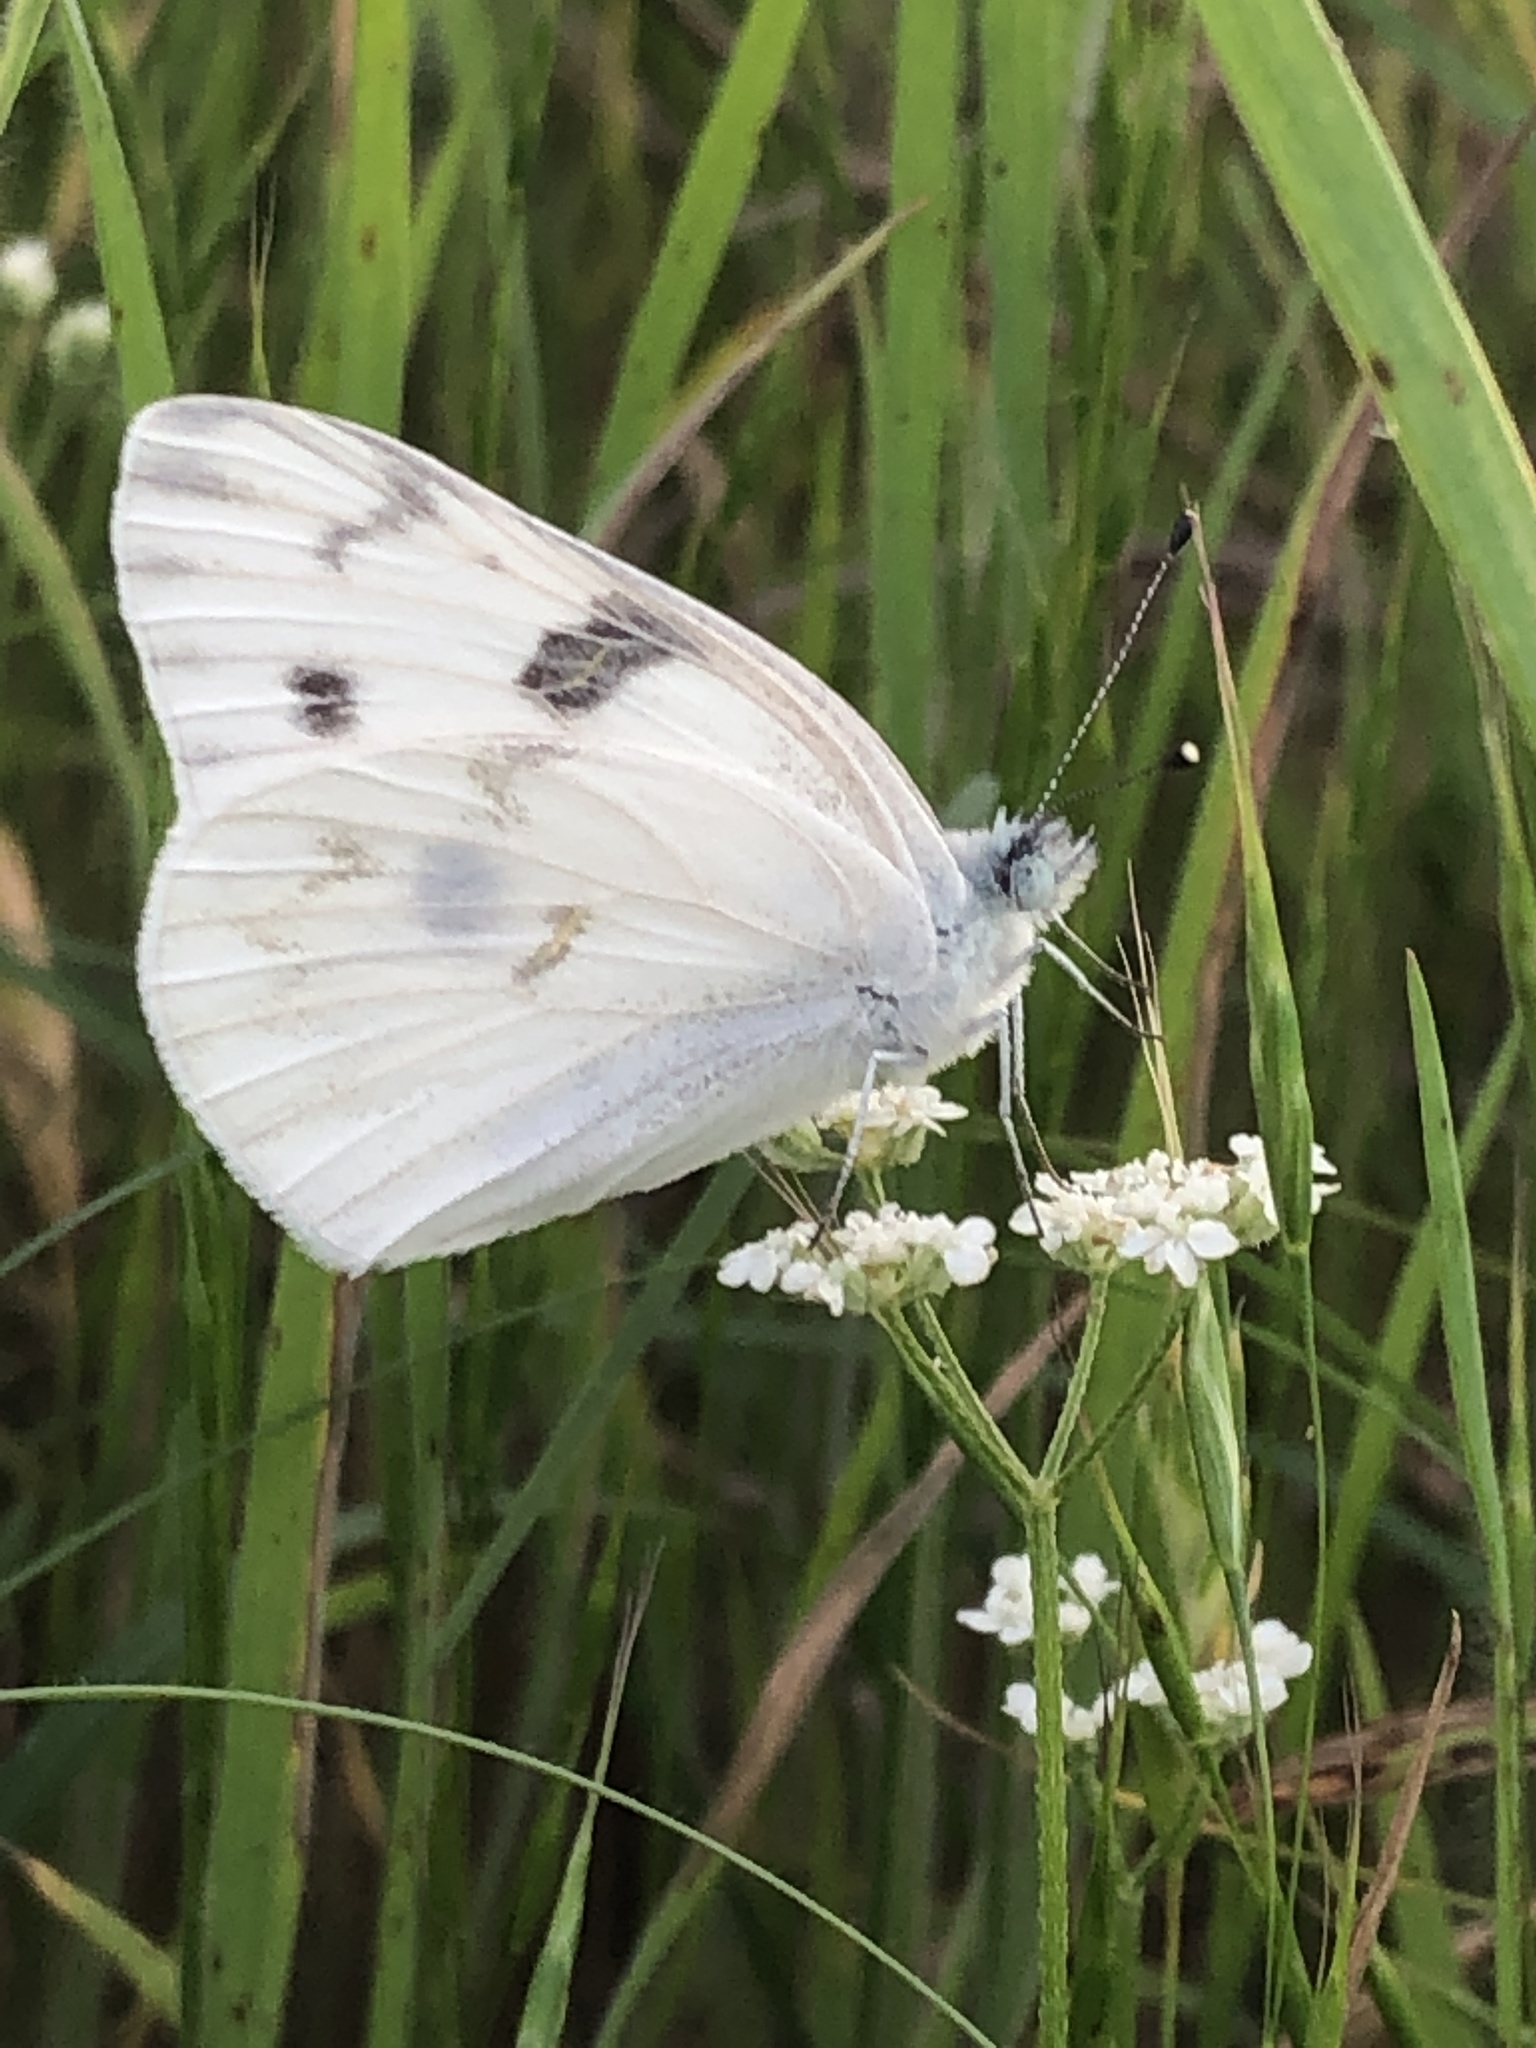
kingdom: Animalia
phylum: Arthropoda
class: Insecta
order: Lepidoptera
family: Pieridae
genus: Pontia
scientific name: Pontia protodice
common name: Checkered white
